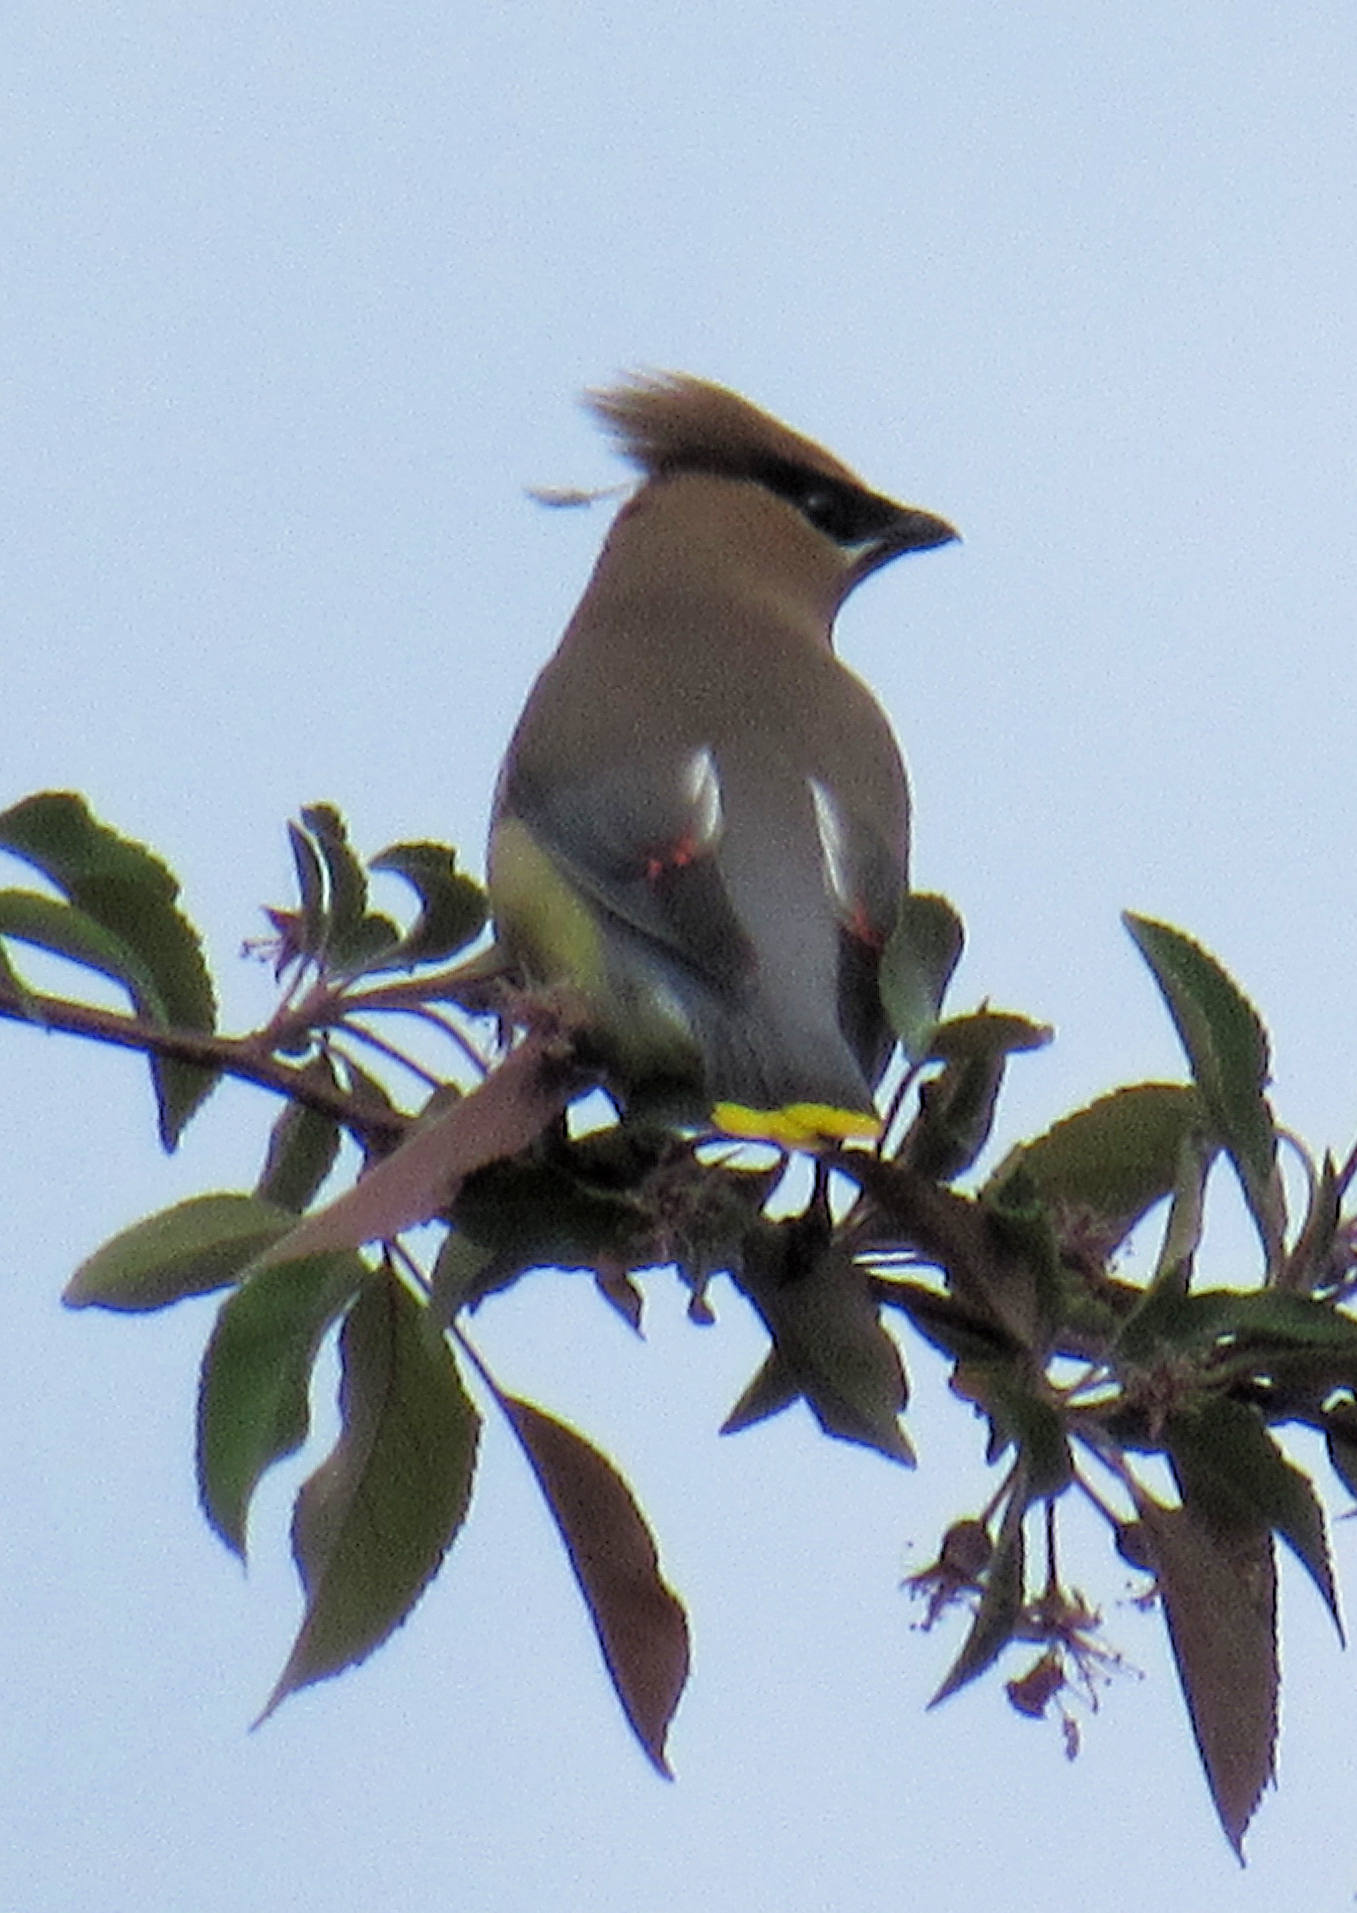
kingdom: Animalia
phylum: Chordata
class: Aves
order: Passeriformes
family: Bombycillidae
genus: Bombycilla
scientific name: Bombycilla cedrorum
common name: Cedar waxwing
